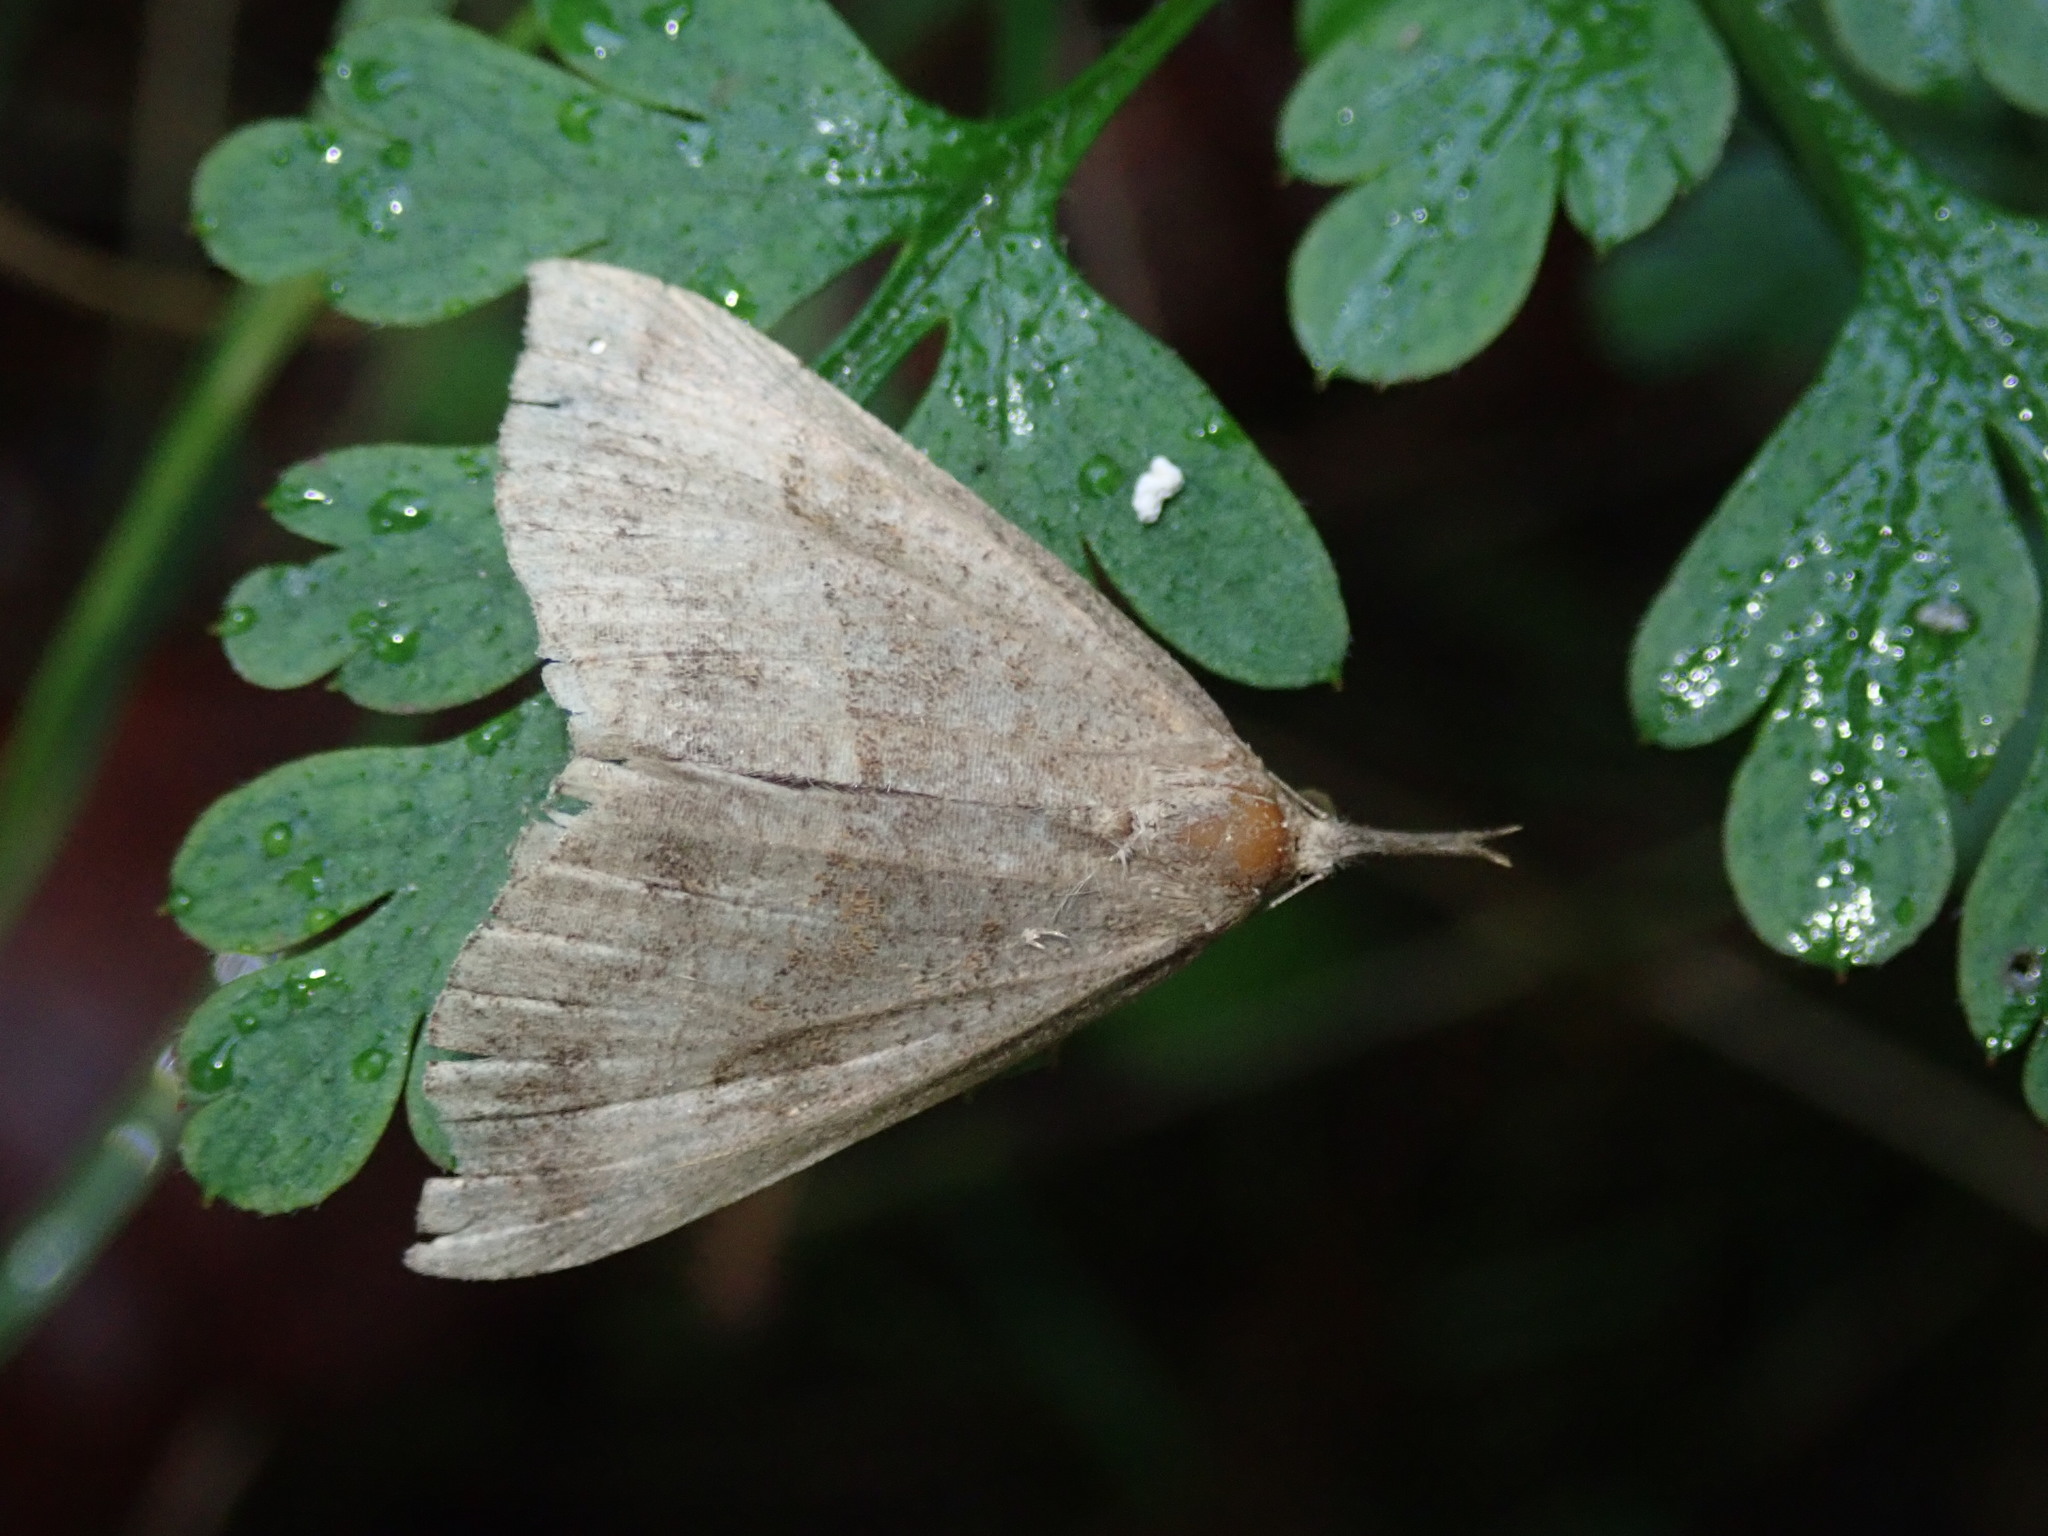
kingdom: Animalia
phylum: Arthropoda
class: Insecta
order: Lepidoptera
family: Erebidae
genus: Hypena
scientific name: Hypena proboscidalis
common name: Snout
